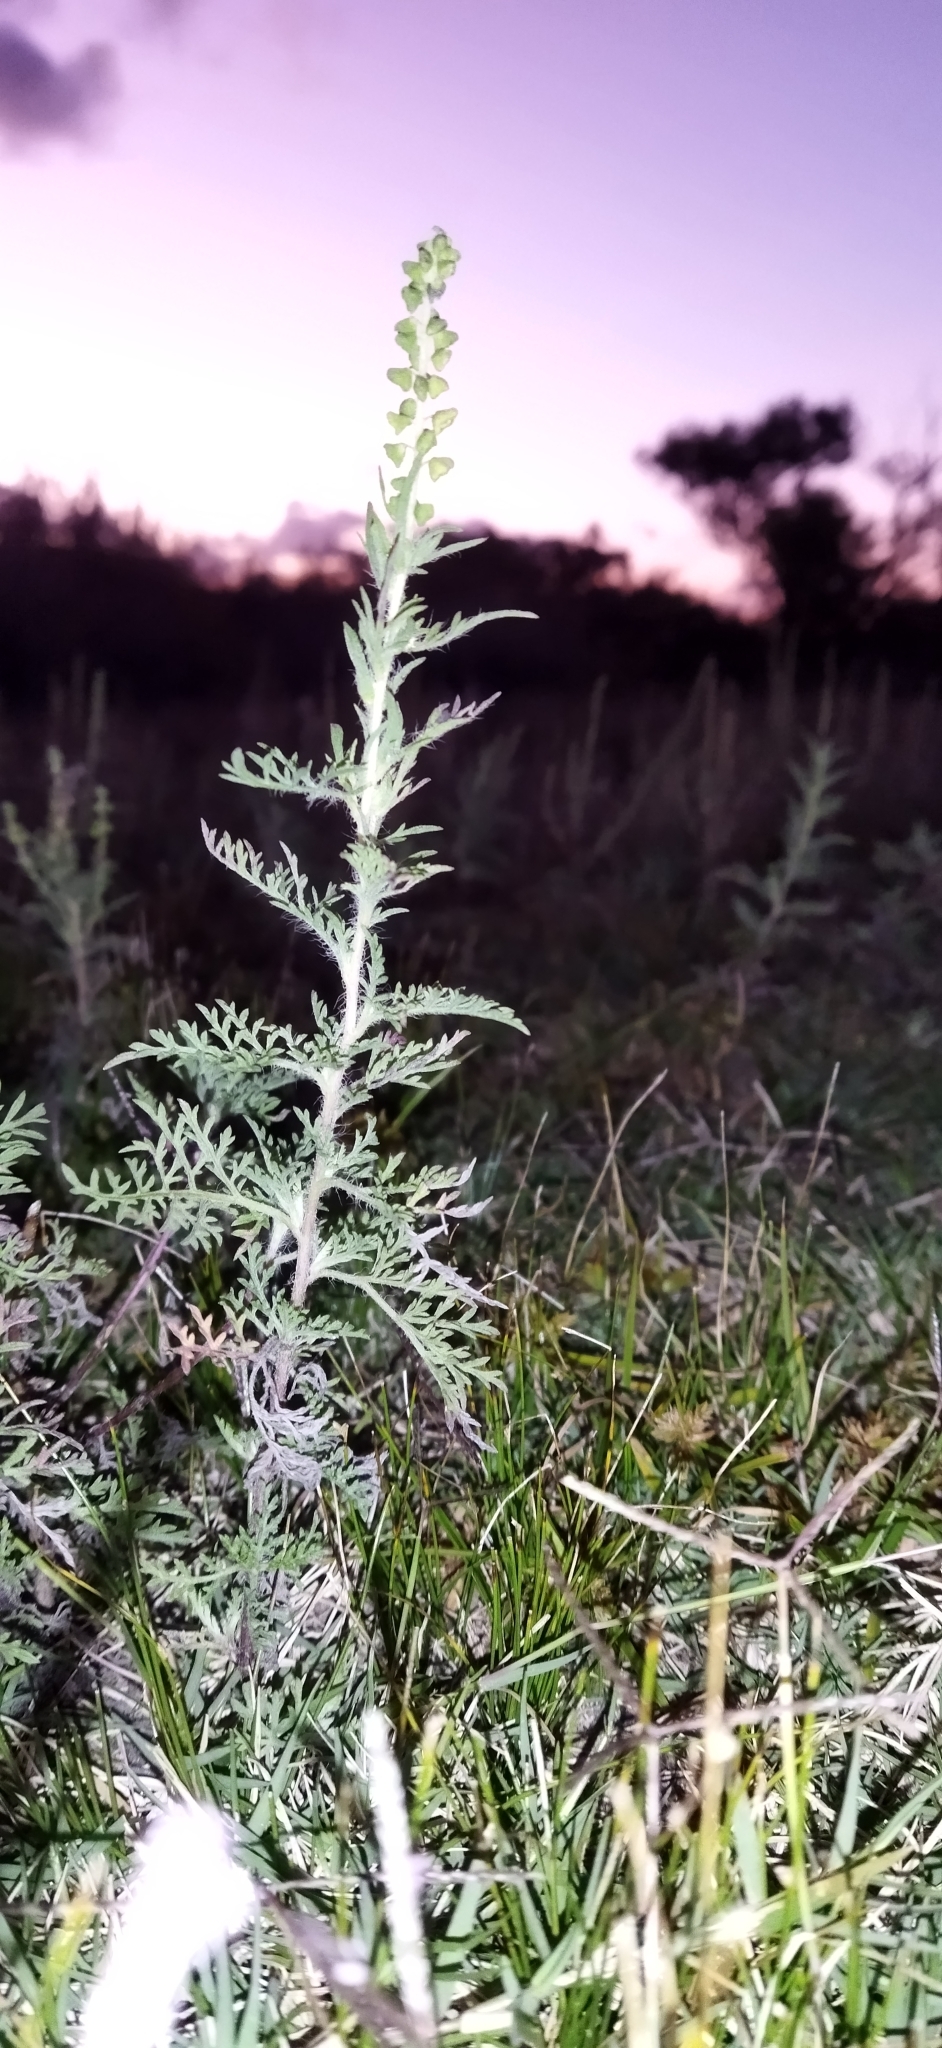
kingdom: Plantae
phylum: Tracheophyta
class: Magnoliopsida
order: Asterales
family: Asteraceae
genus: Ambrosia
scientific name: Ambrosia tenuifolia
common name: Lacy ambrosia
